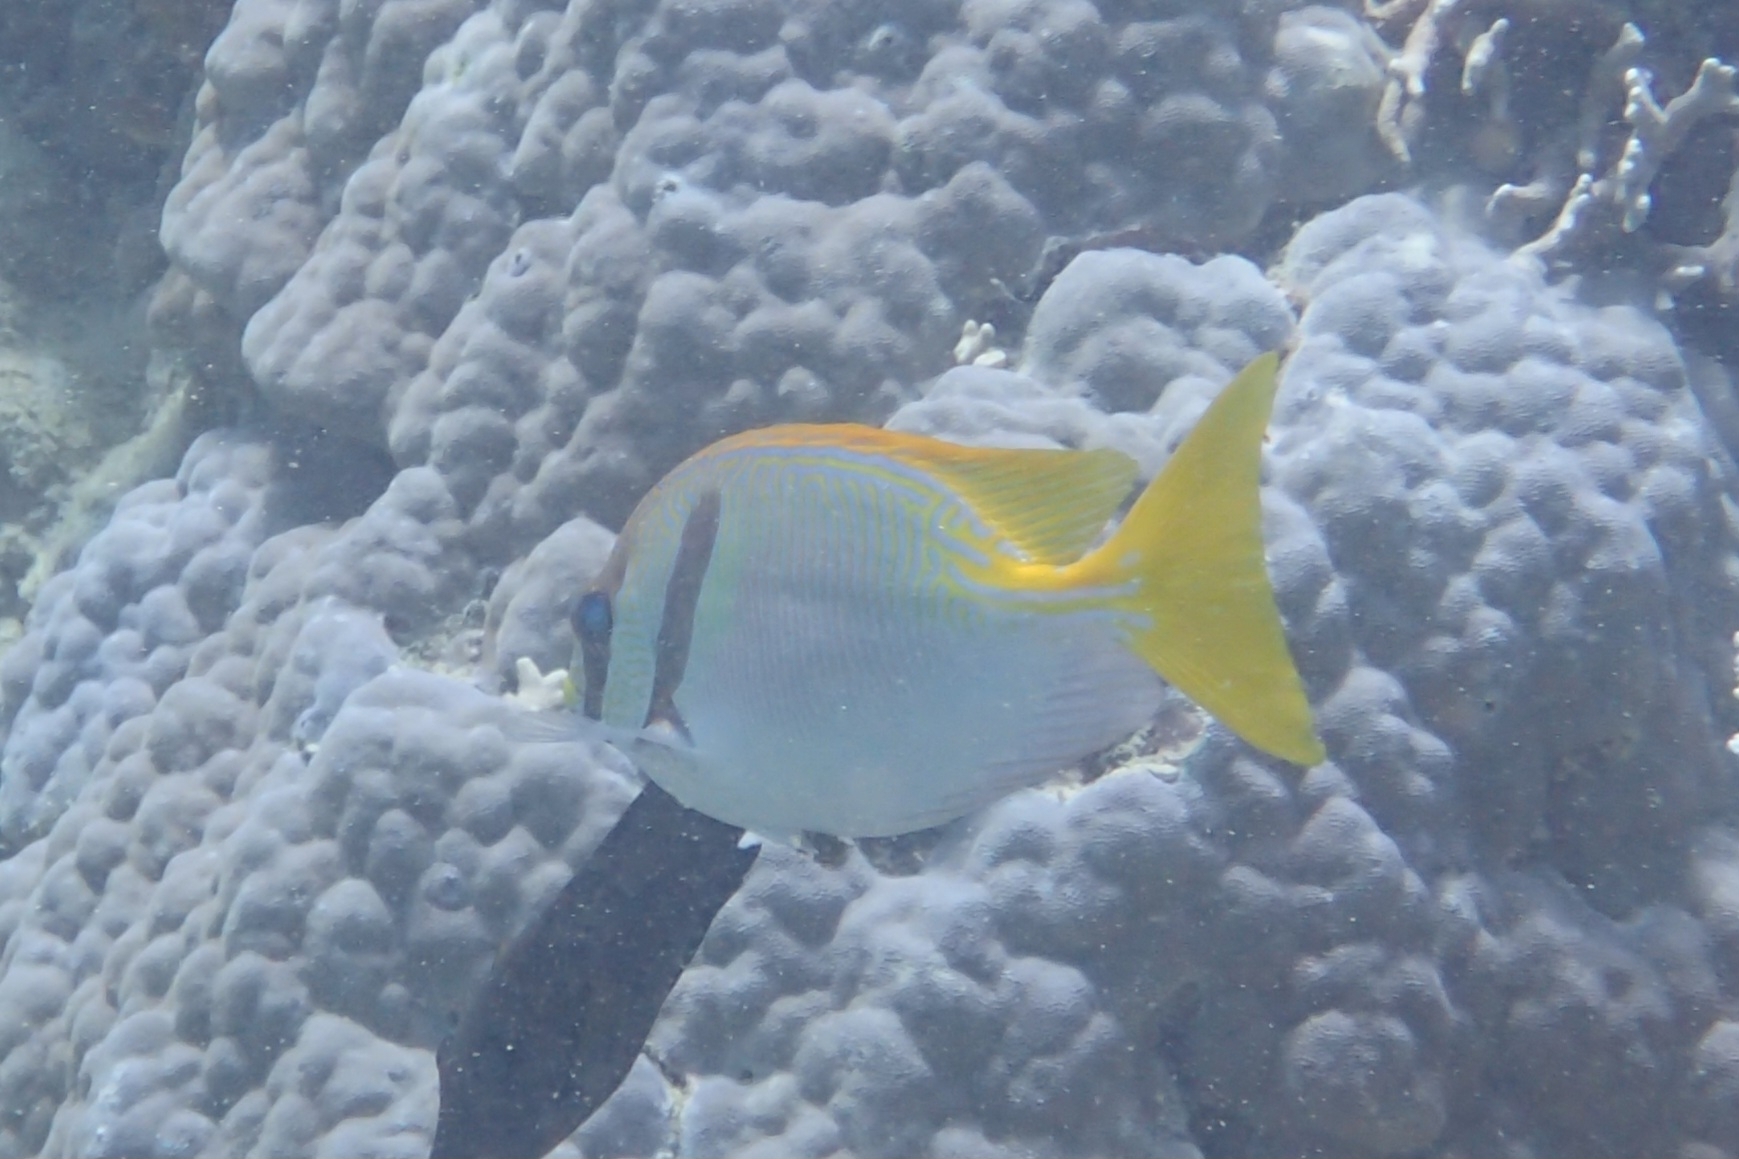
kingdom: Animalia
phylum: Chordata
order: Perciformes
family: Siganidae
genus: Siganus
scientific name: Siganus doliatus
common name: Barred spinefoot
